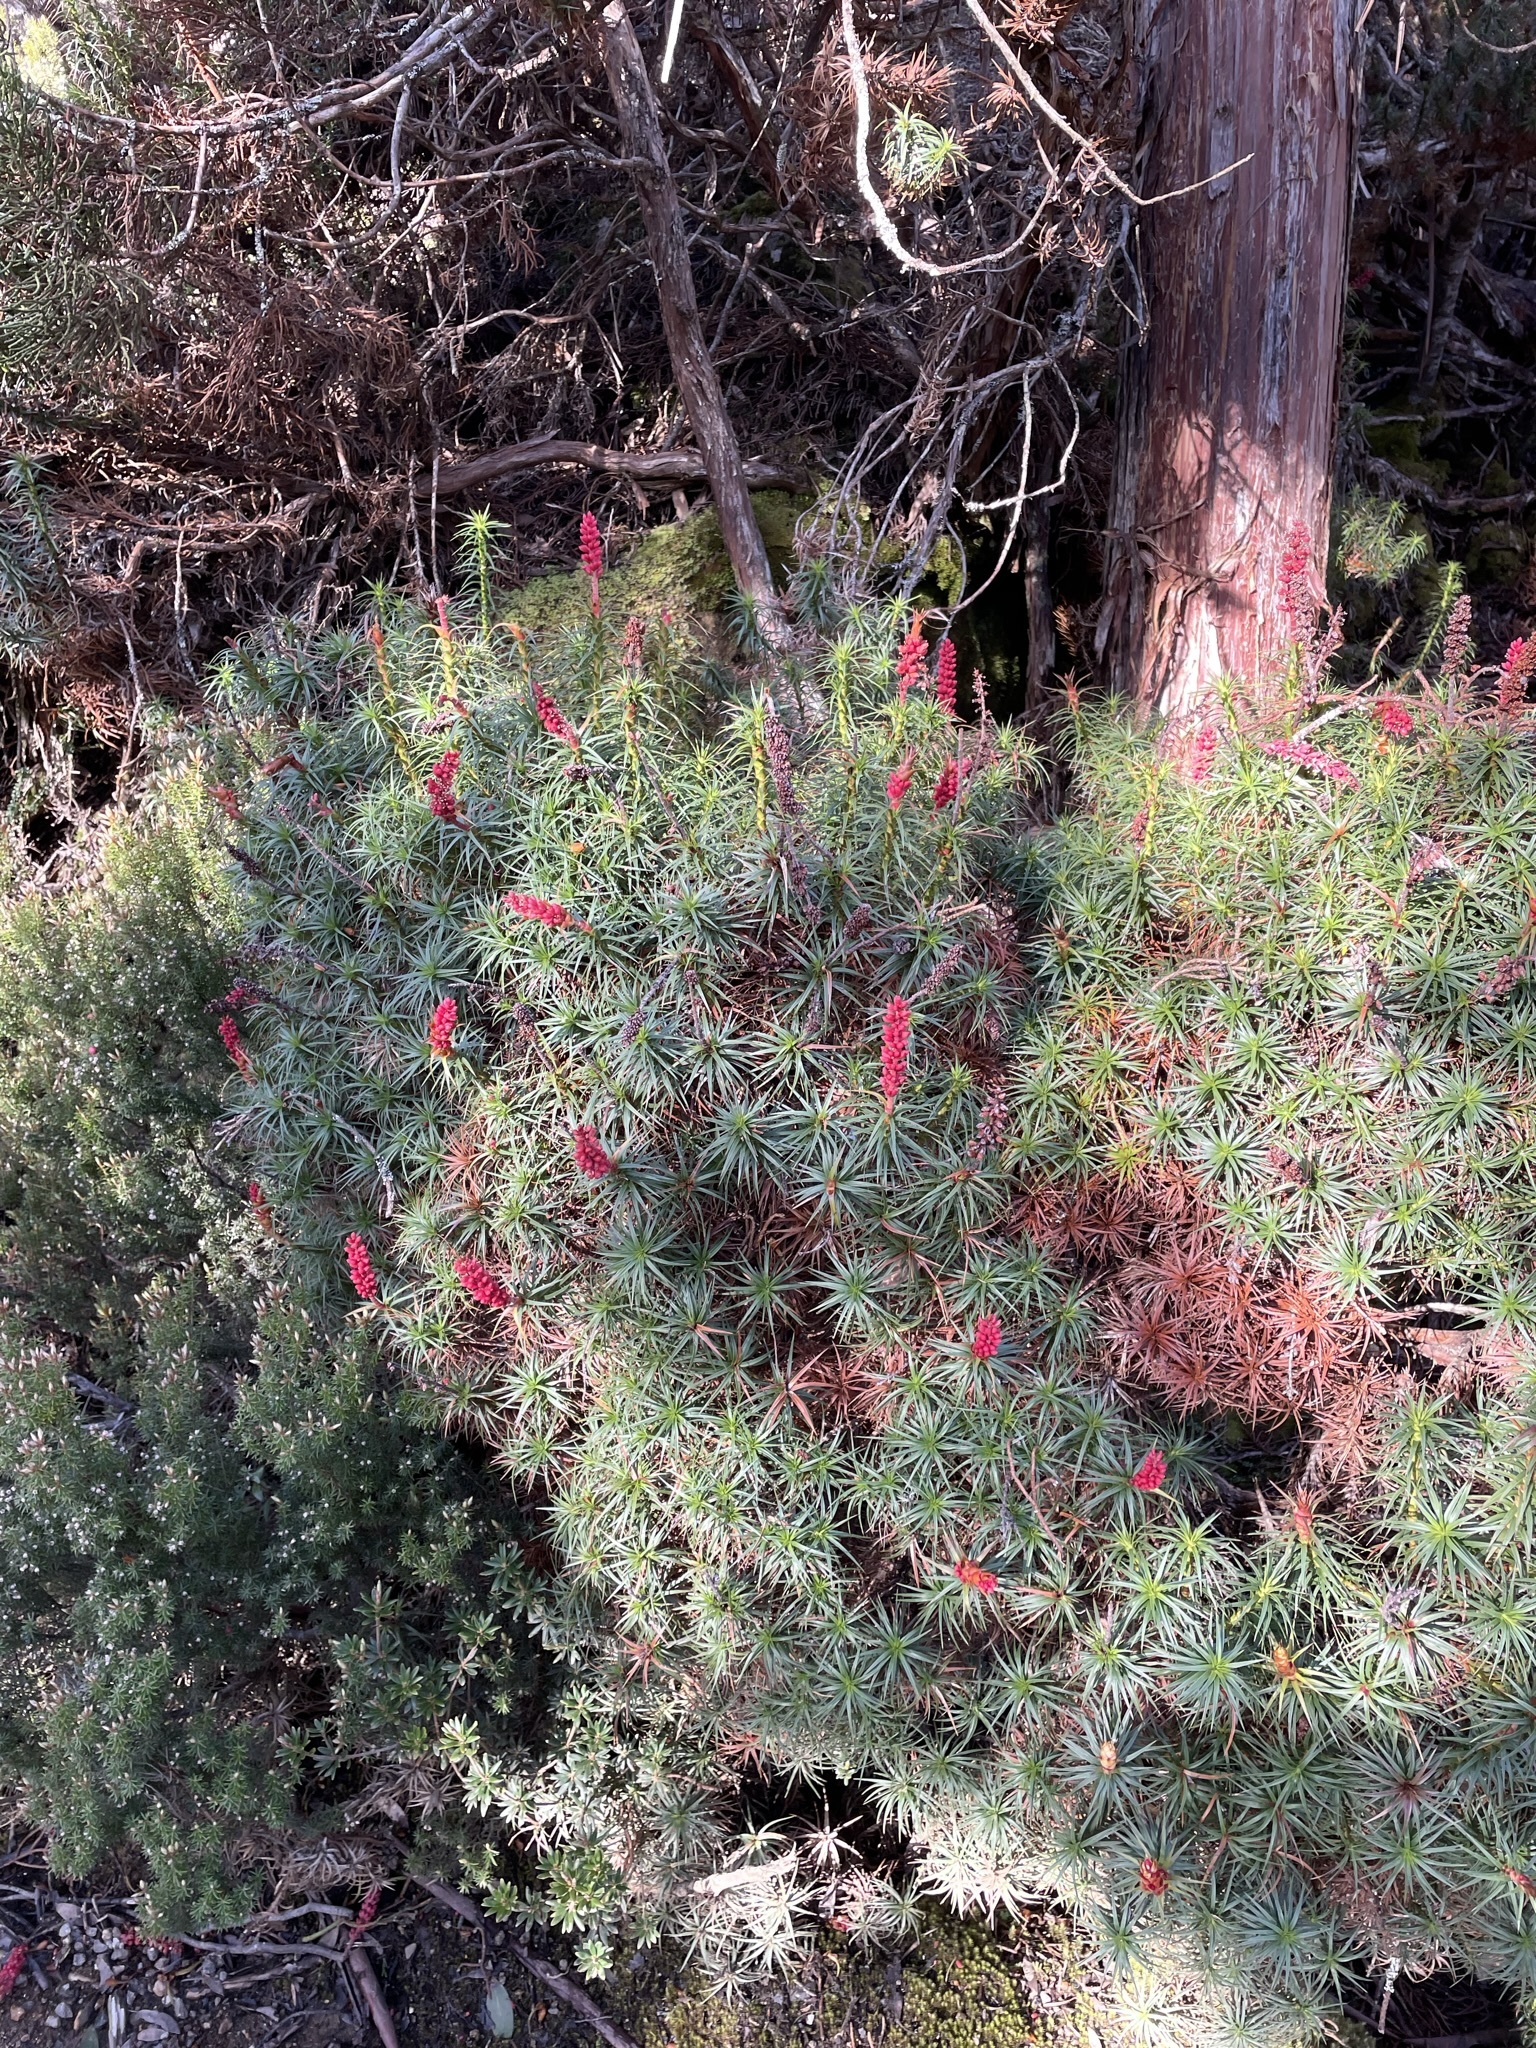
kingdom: Plantae
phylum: Tracheophyta
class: Magnoliopsida
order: Ericales
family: Ericaceae
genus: Dracophyllum
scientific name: Dracophyllum persistentifolium
